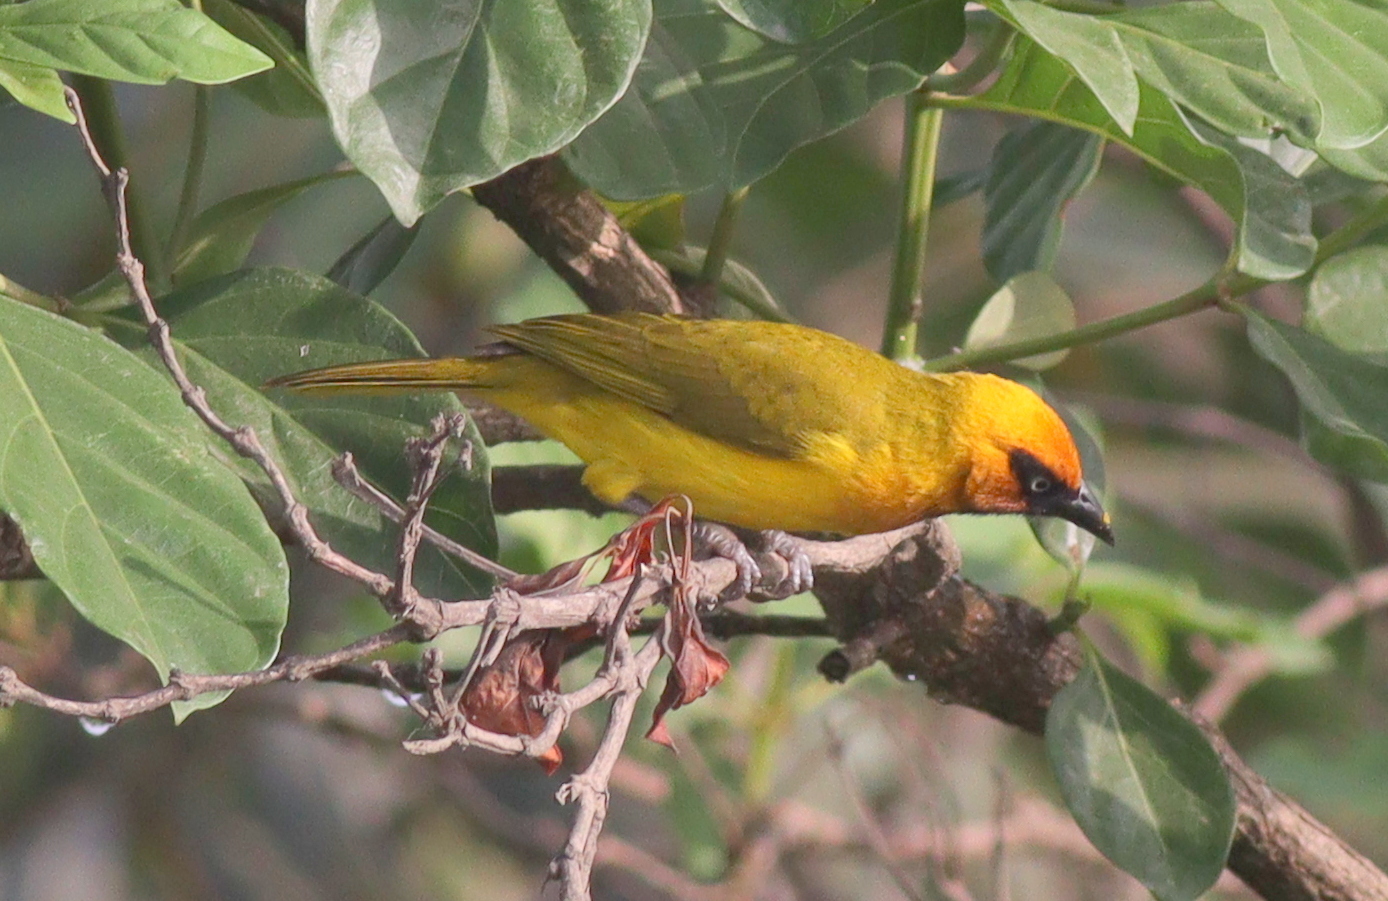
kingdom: Animalia
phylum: Chordata
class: Aves
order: Passeriformes
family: Ploceidae
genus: Ploceus
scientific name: Ploceus brachypterus
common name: Olive-naped weaver
